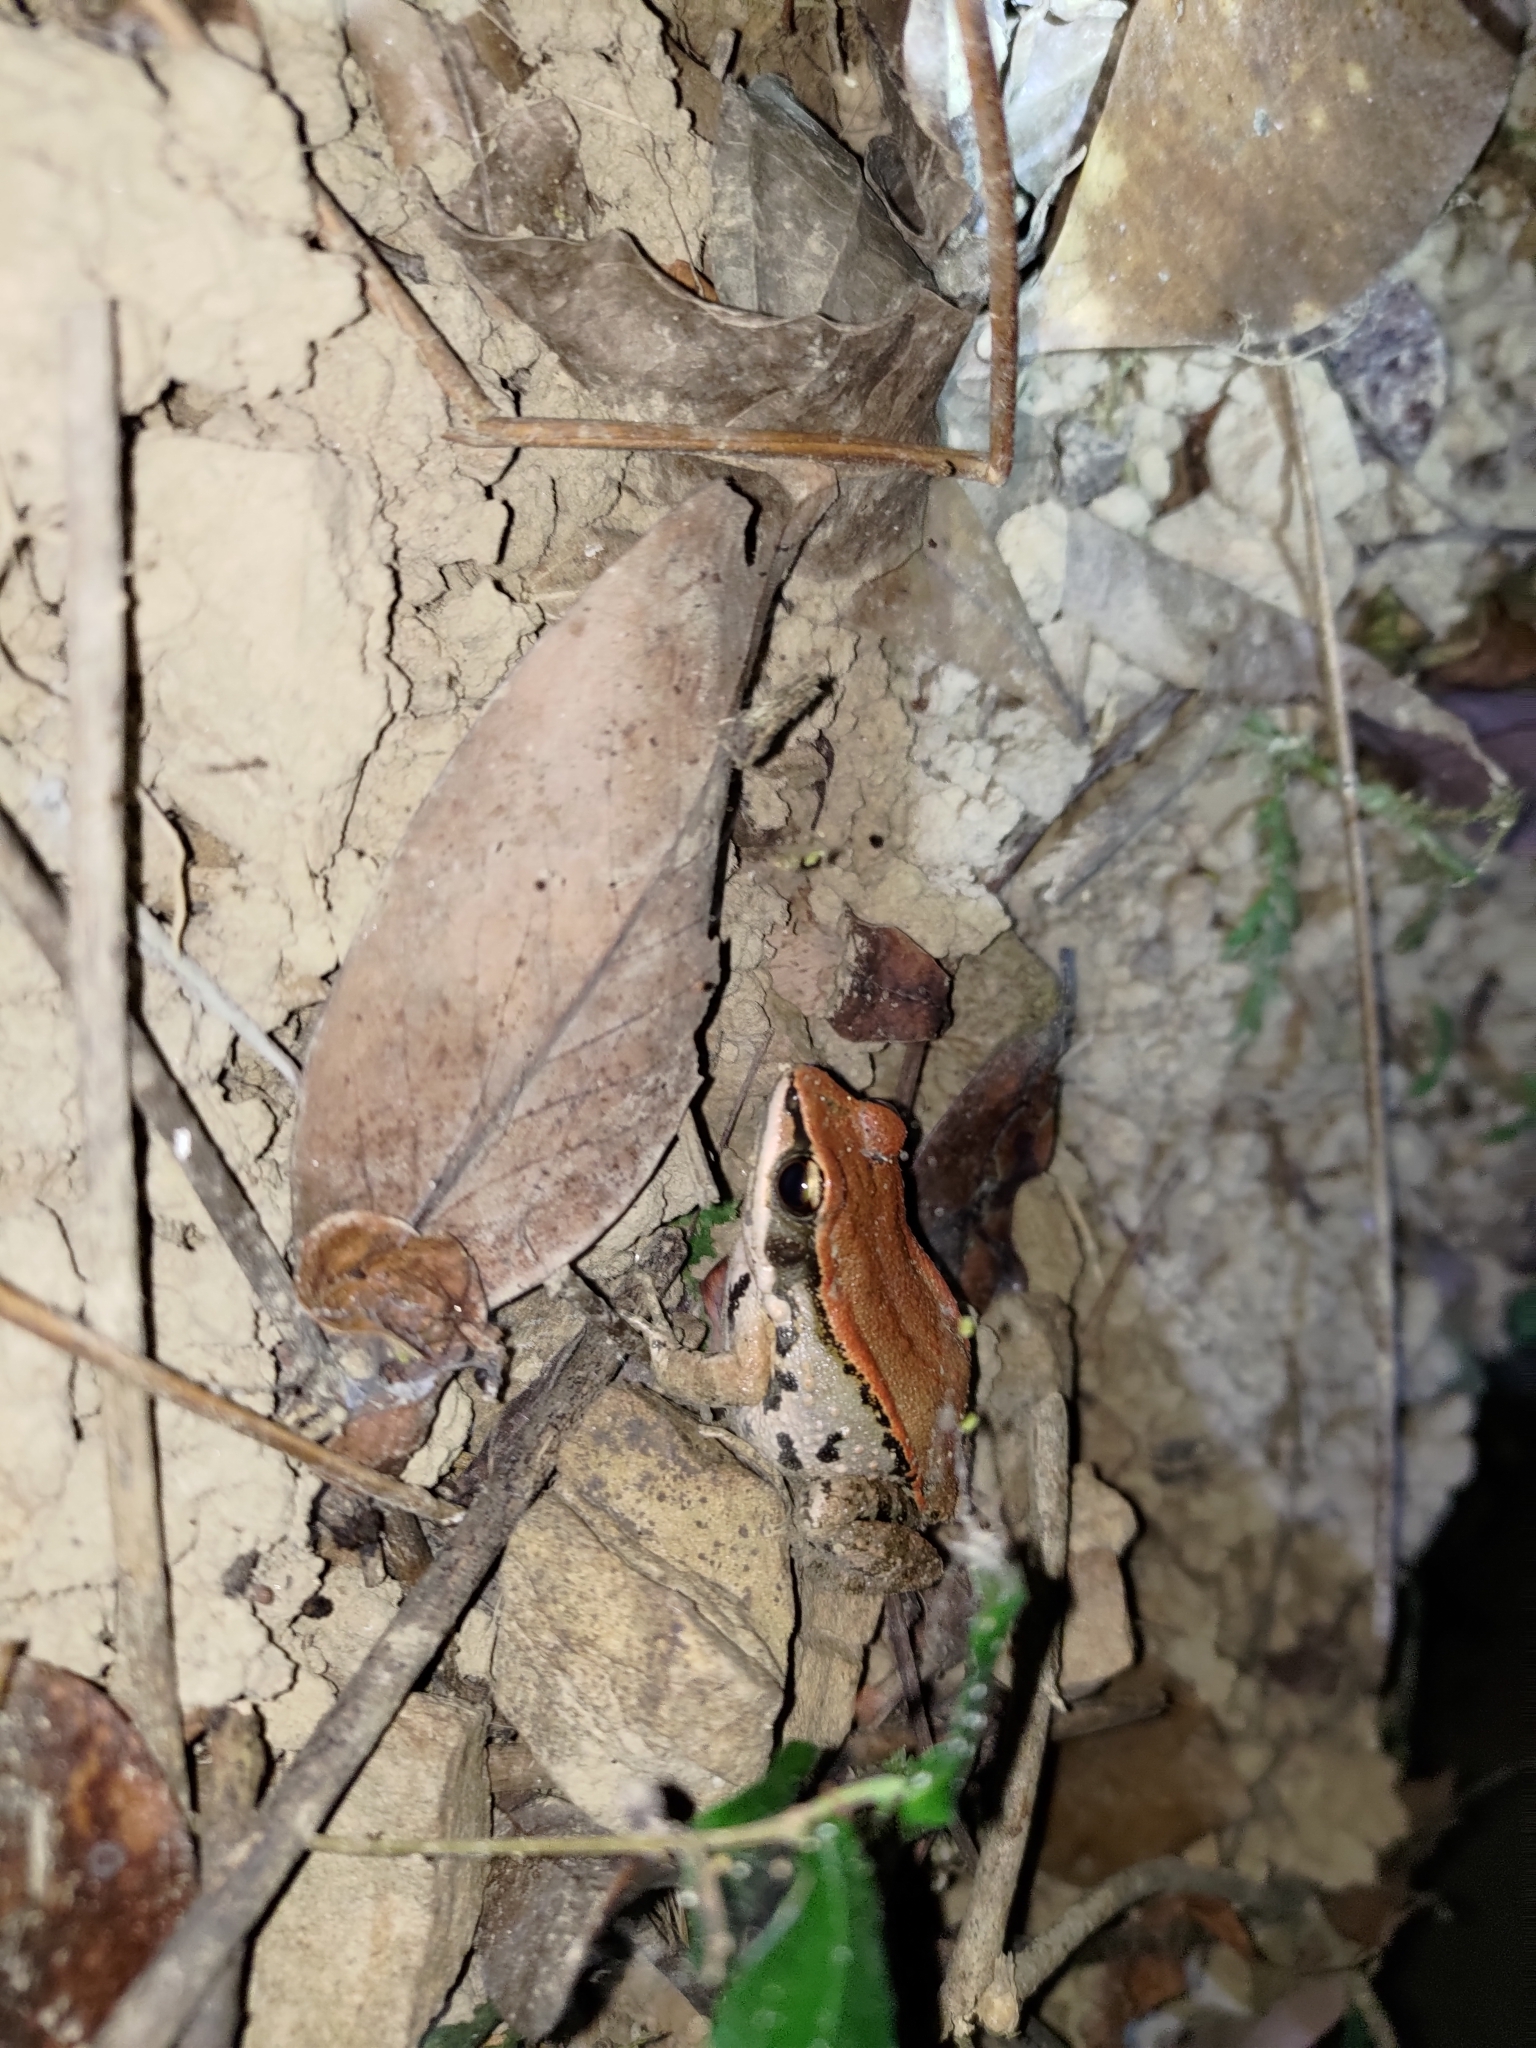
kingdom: Animalia
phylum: Chordata
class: Amphibia
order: Anura
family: Ranidae
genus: Hylarana
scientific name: Hylarana latouchii
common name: Broad-folded frog
